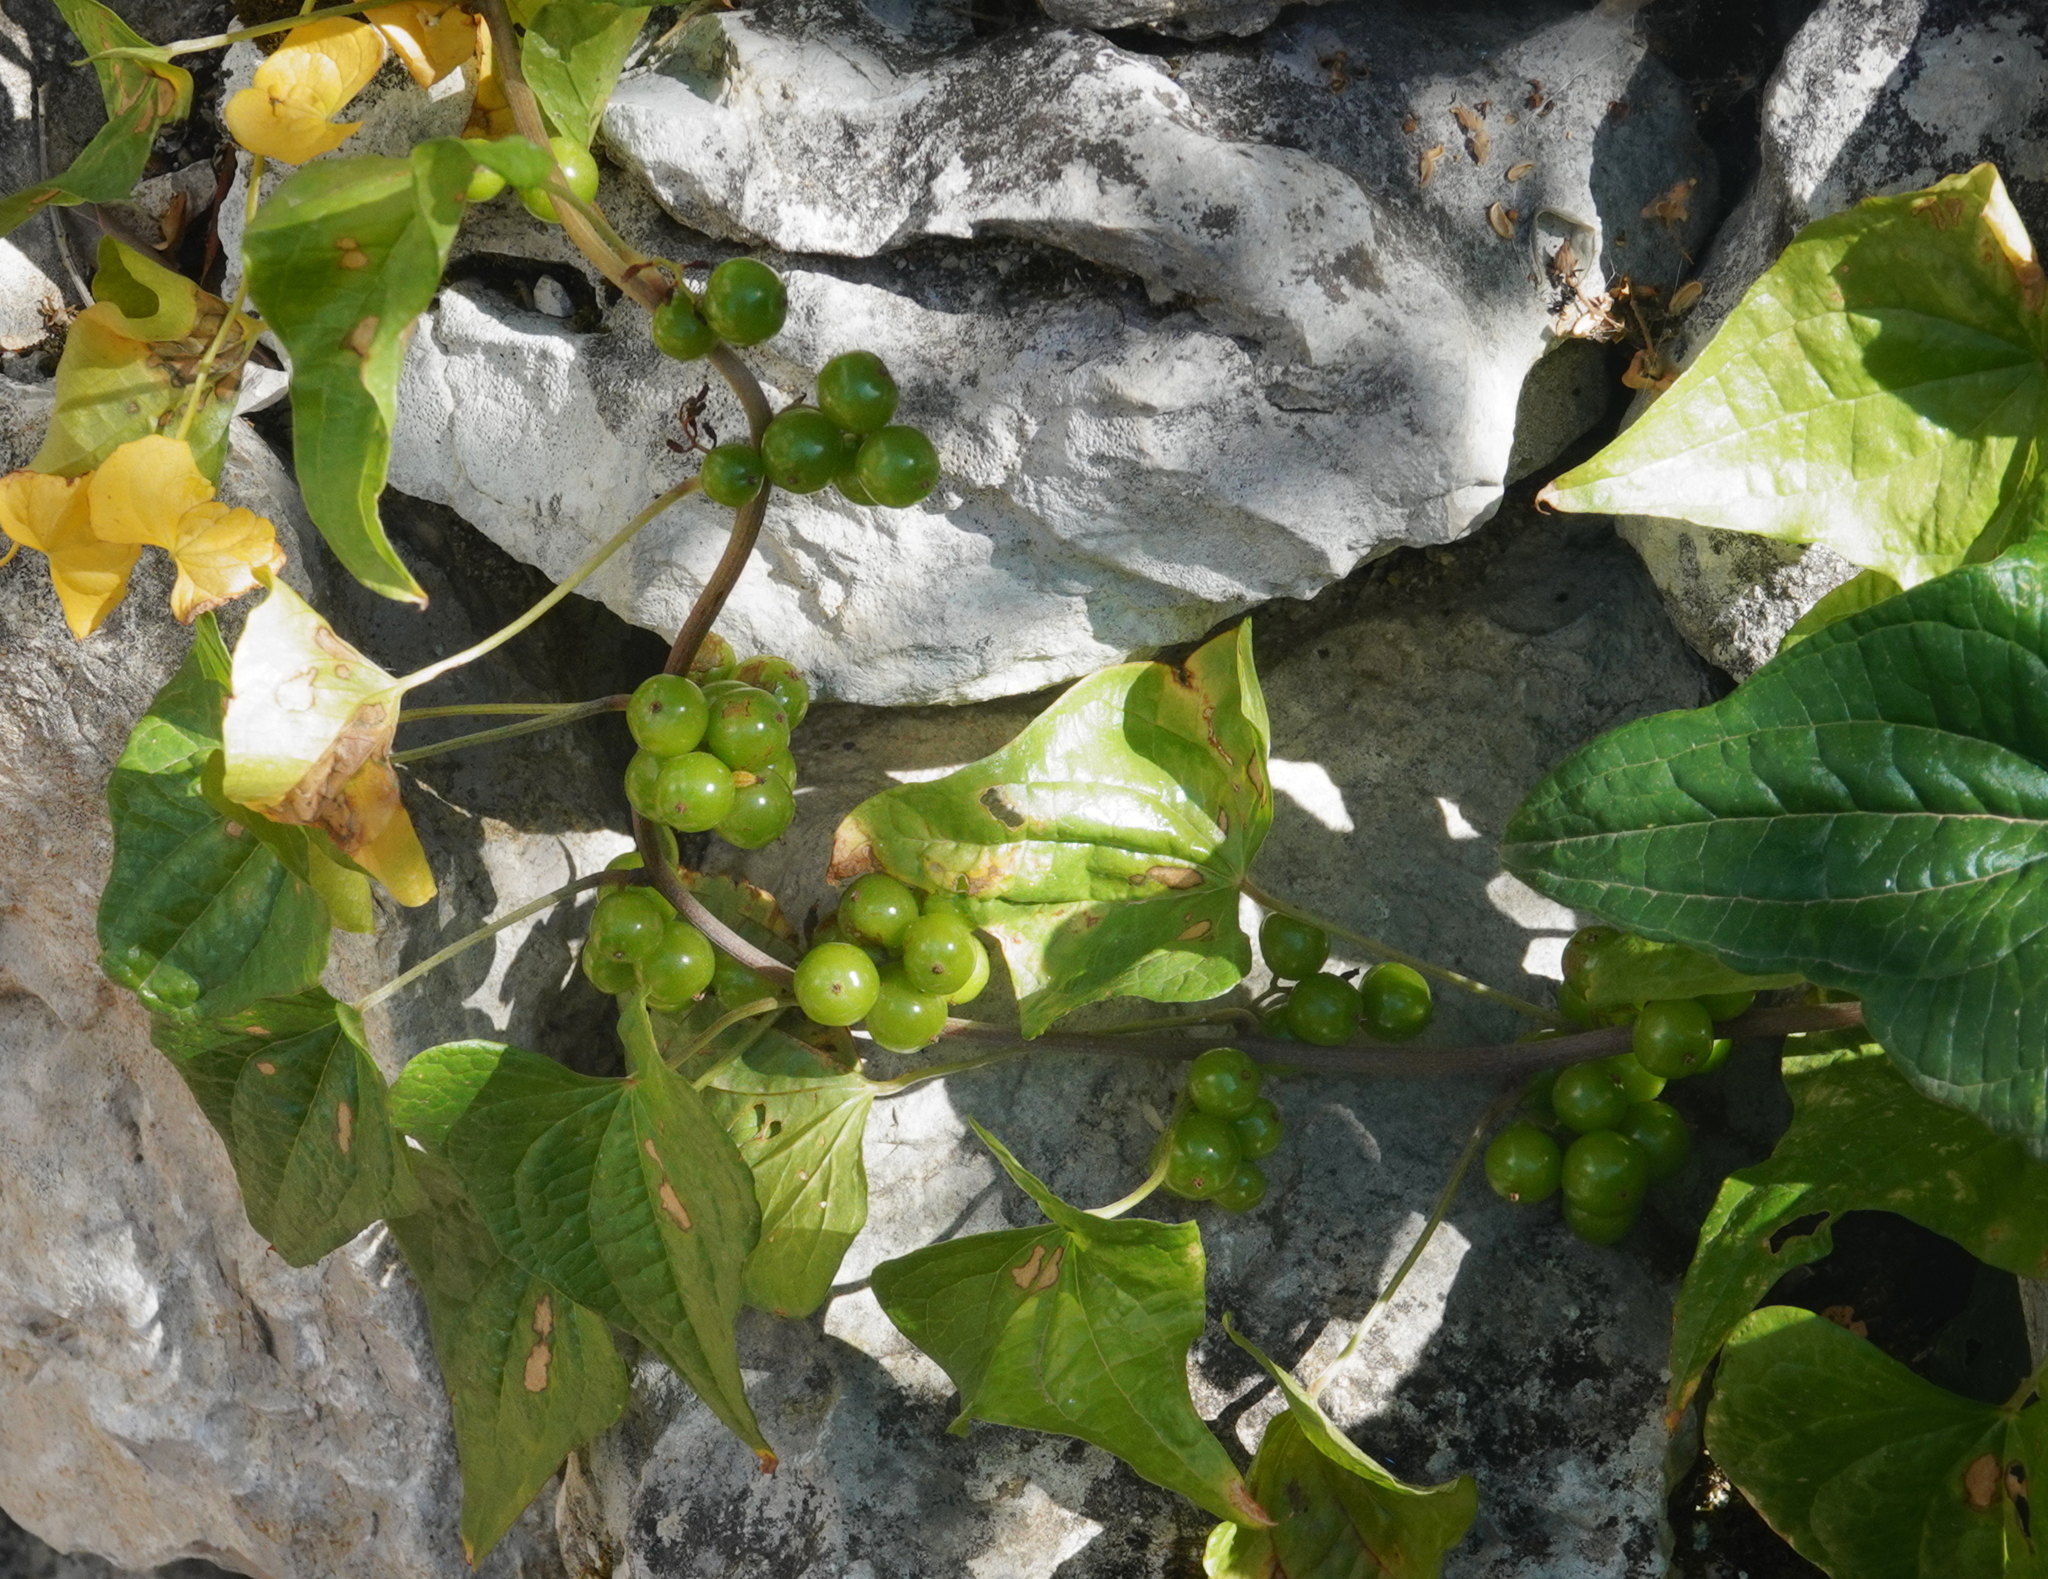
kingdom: Plantae
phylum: Tracheophyta
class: Liliopsida
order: Dioscoreales
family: Dioscoreaceae
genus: Dioscorea
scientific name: Dioscorea communis
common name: Black-bindweed
